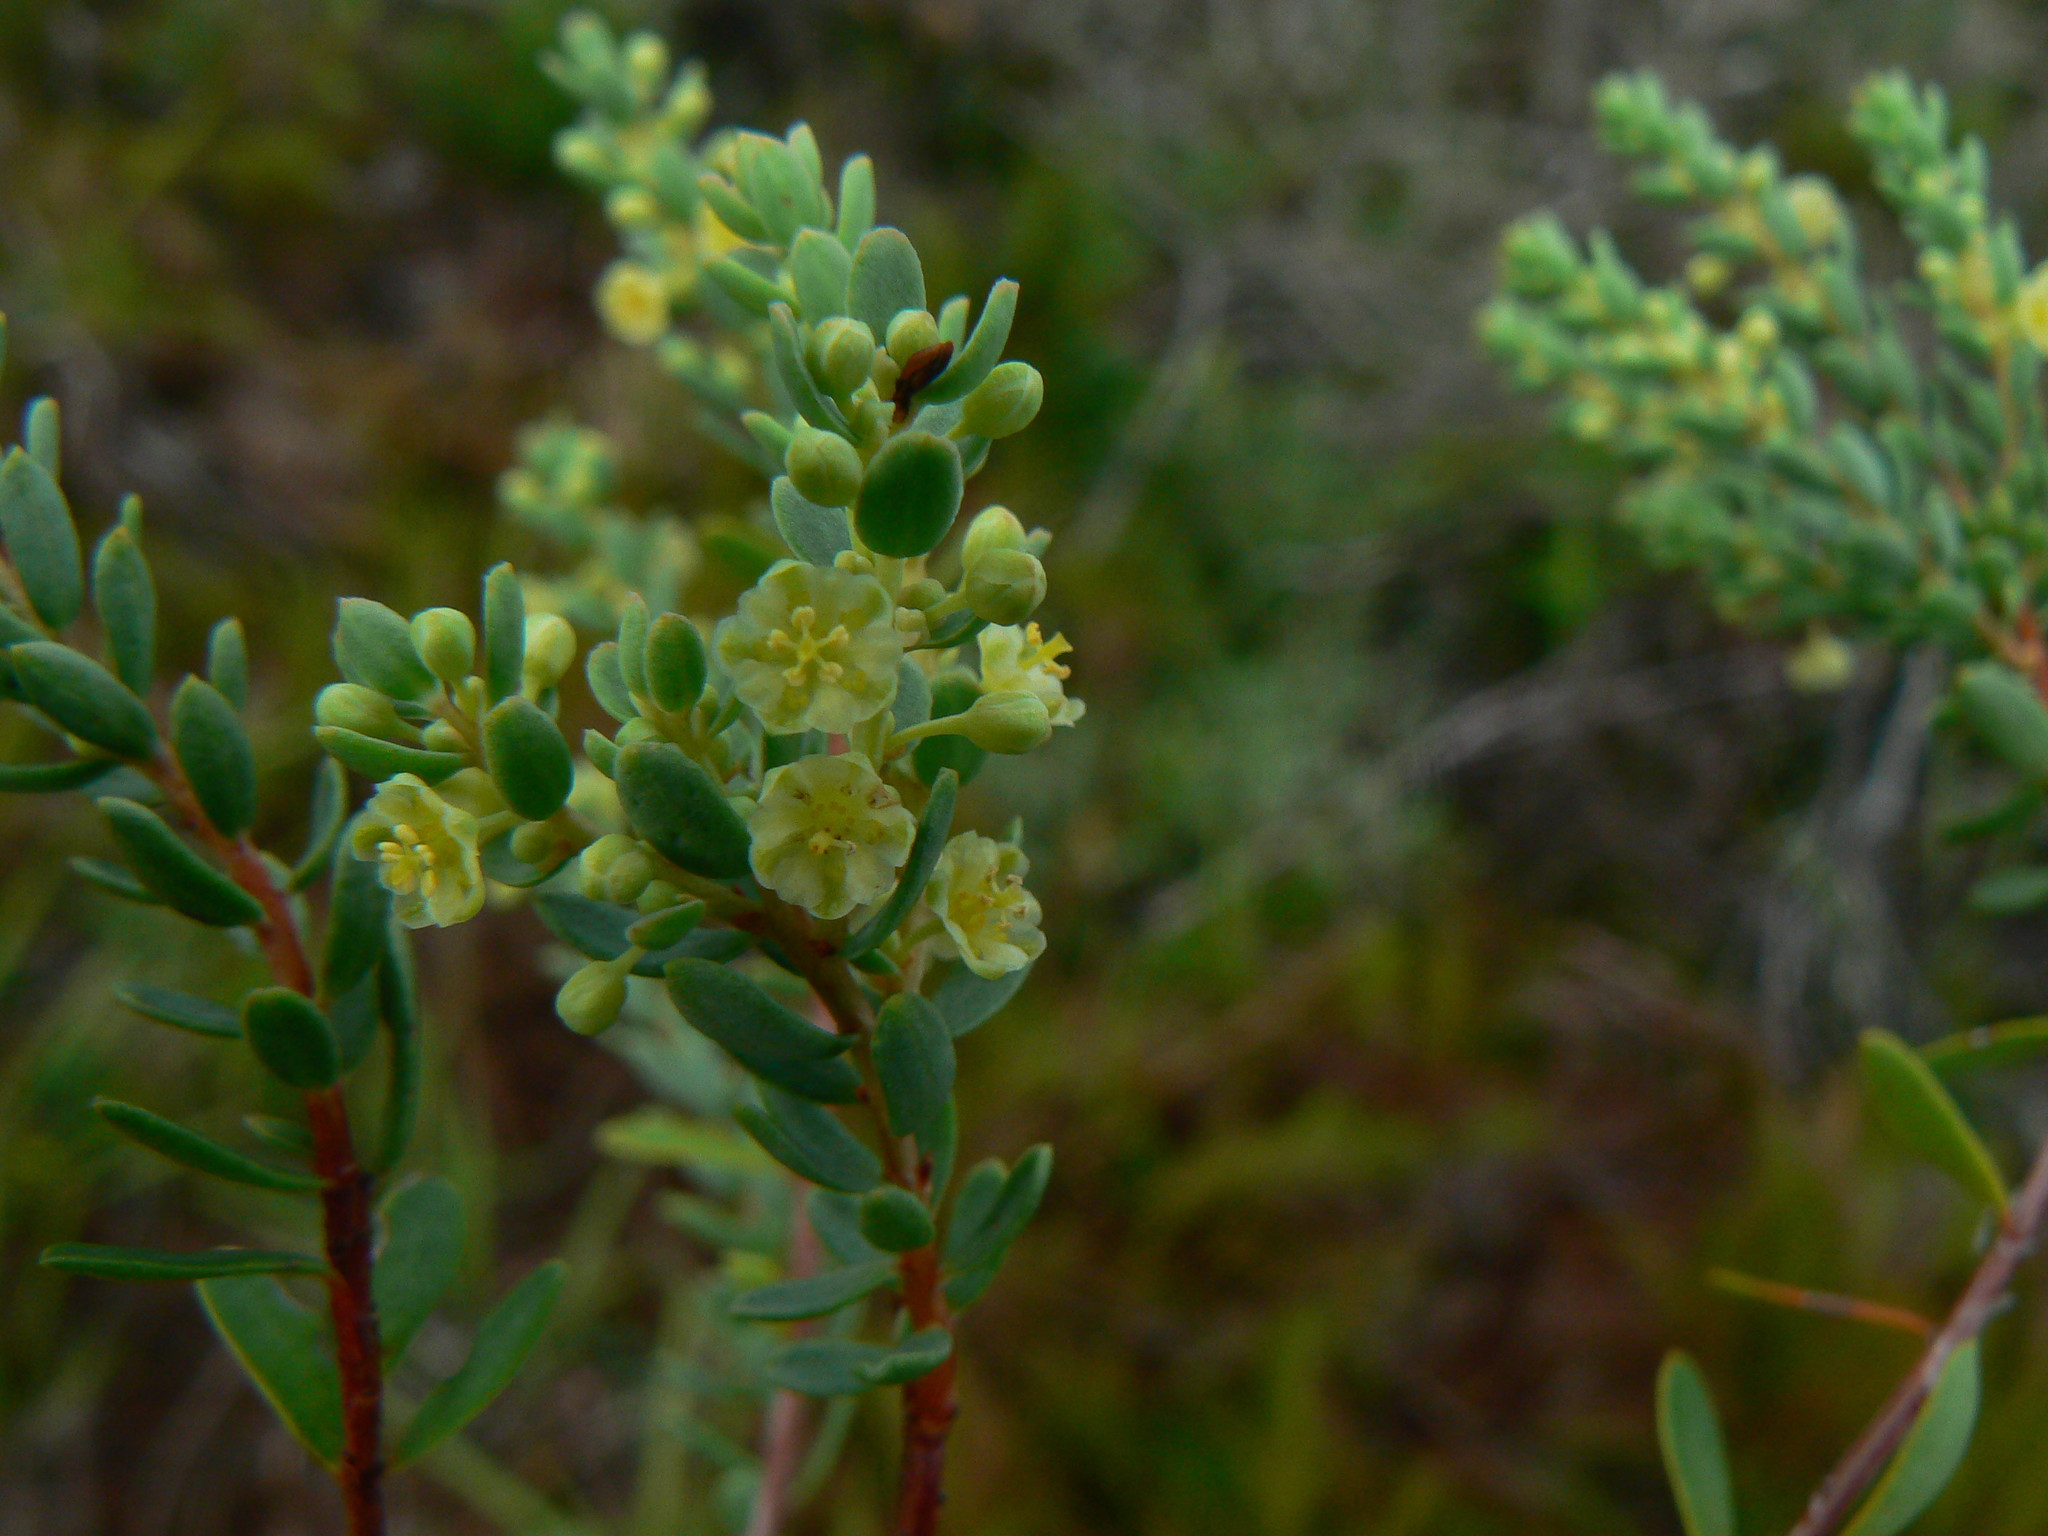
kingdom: Plantae
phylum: Tracheophyta
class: Magnoliopsida
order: Malpighiales
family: Peraceae
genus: Clutia
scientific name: Clutia laxa
